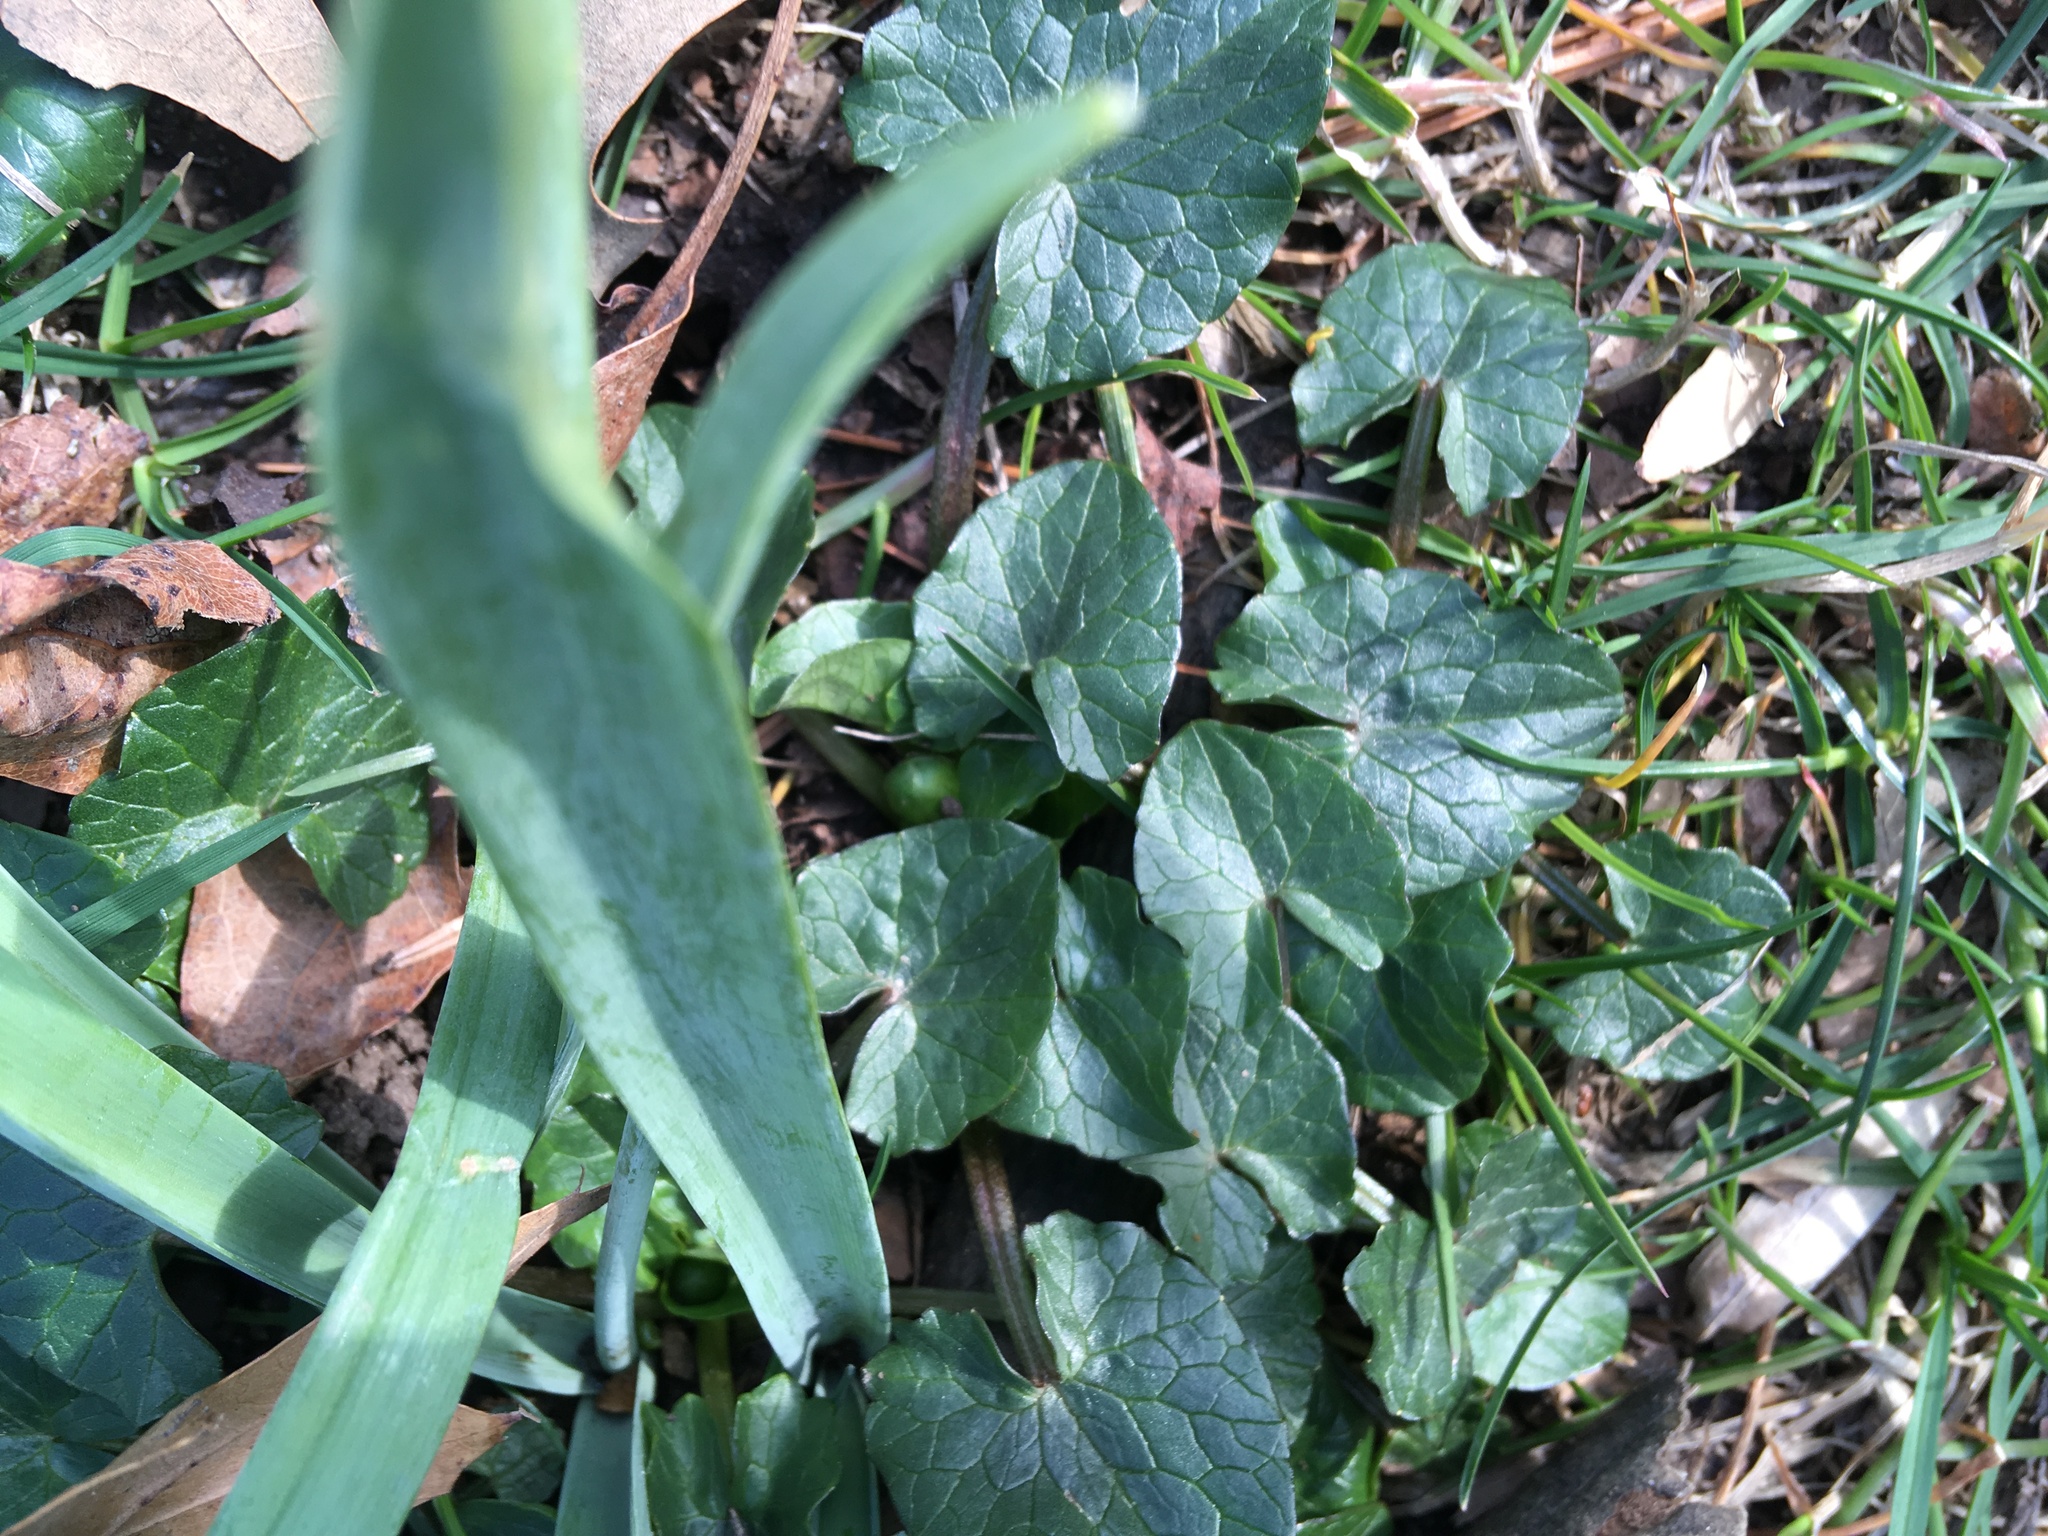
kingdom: Plantae
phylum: Tracheophyta
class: Magnoliopsida
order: Ranunculales
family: Ranunculaceae
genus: Ficaria
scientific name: Ficaria verna
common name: Lesser celandine
